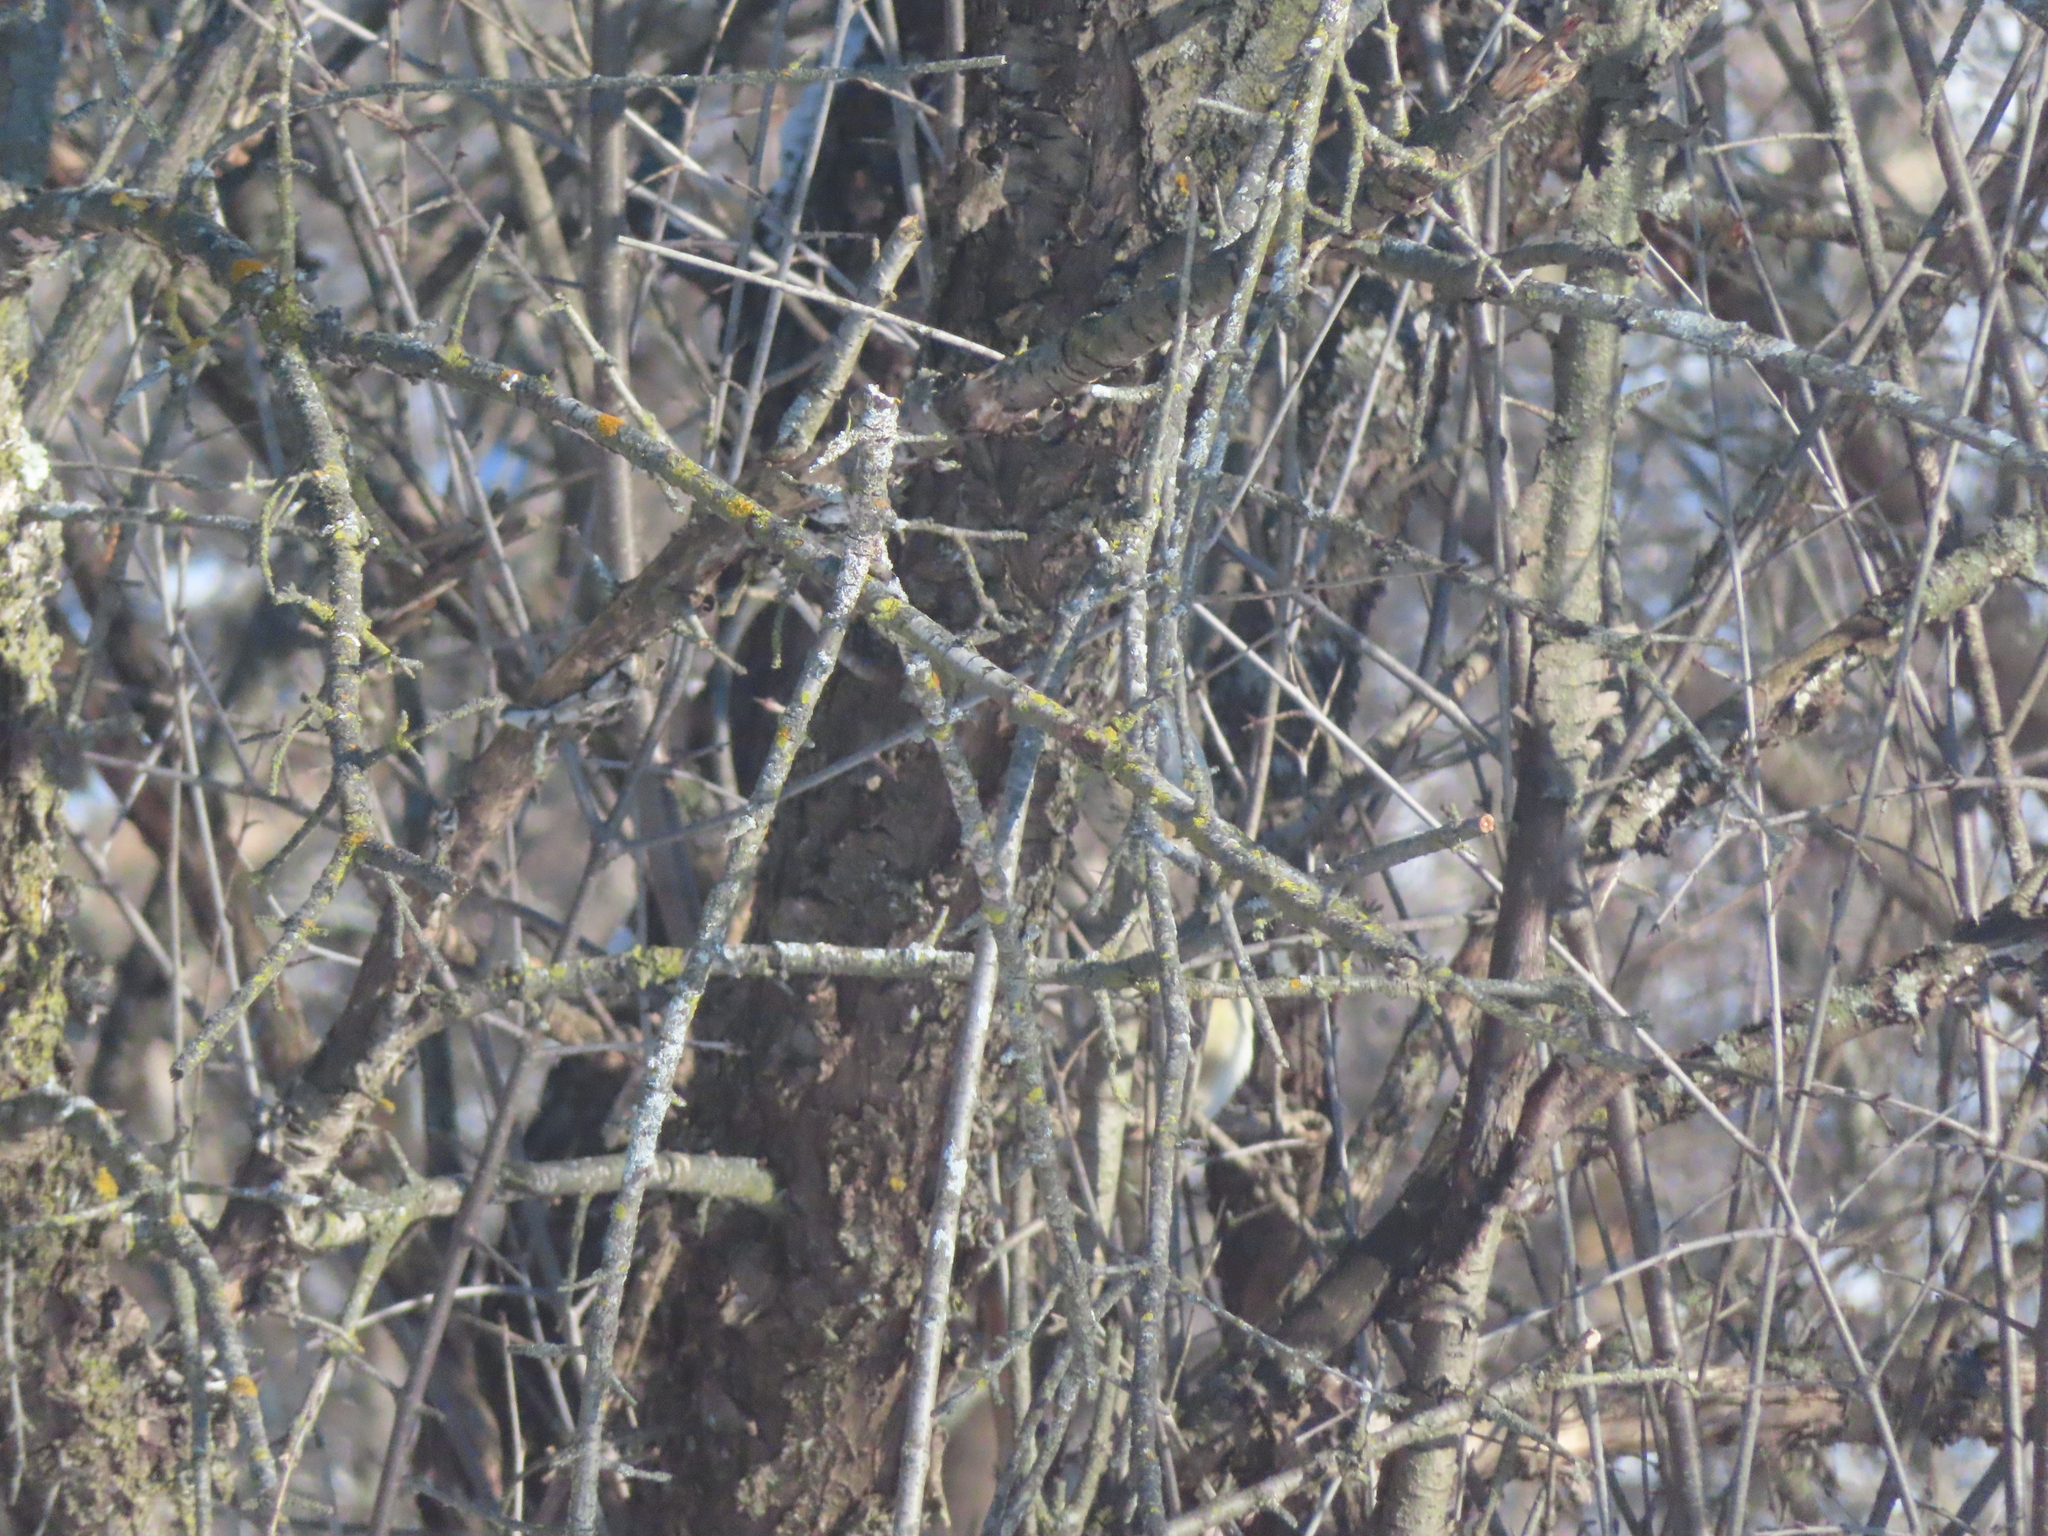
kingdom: Animalia
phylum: Chordata
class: Aves
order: Passeriformes
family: Sittidae
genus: Sitta
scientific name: Sitta canadensis
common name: Red-breasted nuthatch
